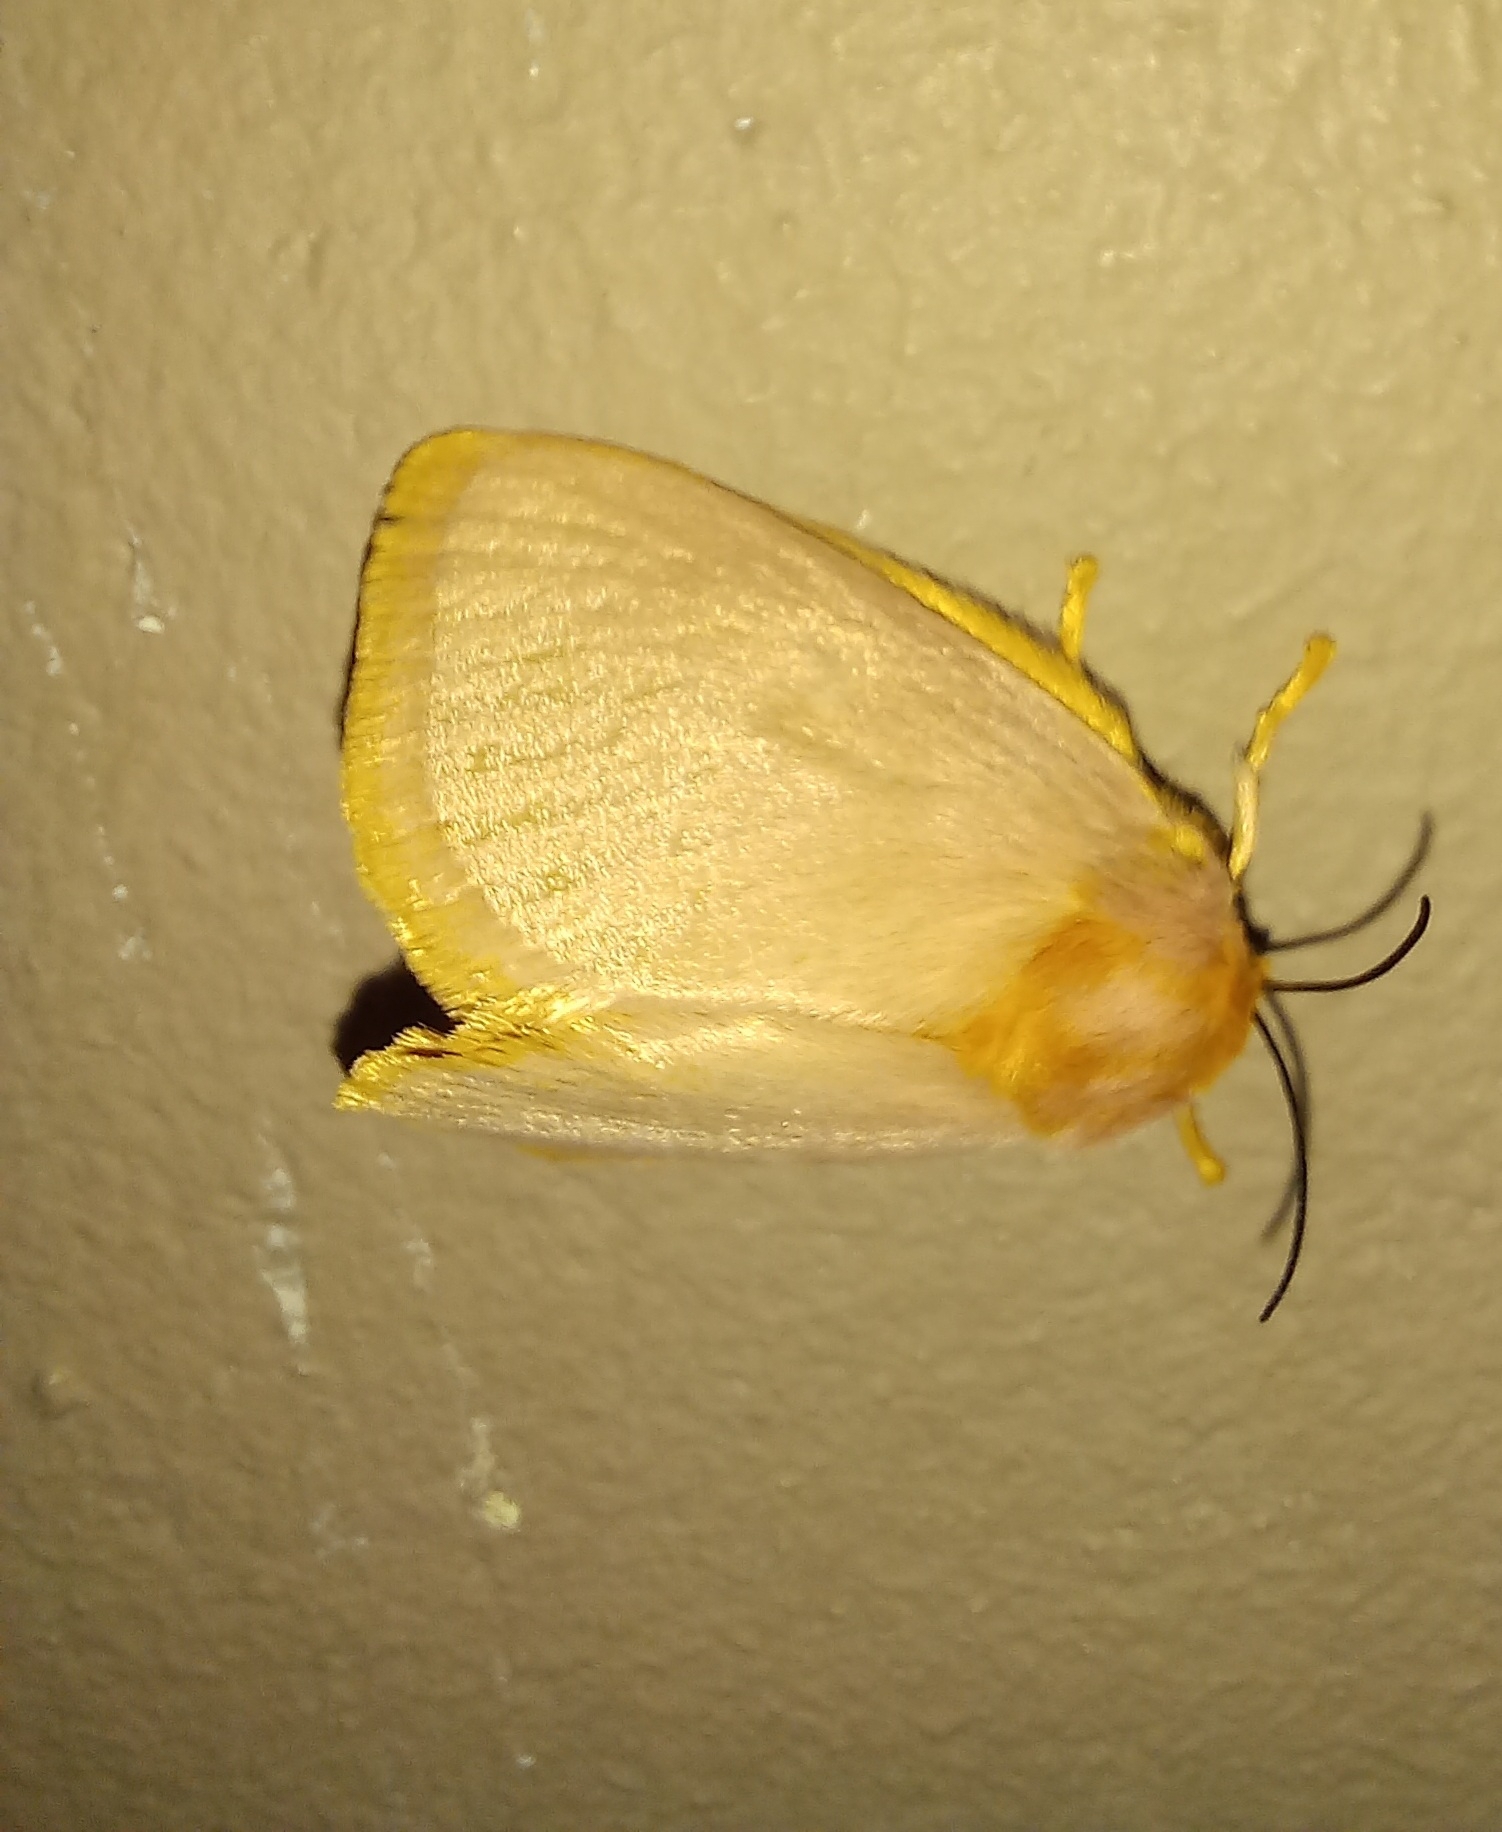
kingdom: Animalia
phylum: Arthropoda
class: Insecta
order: Lepidoptera
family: Limacodidae
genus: Chrysopoloma
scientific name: Chrysopoloma isabellina
